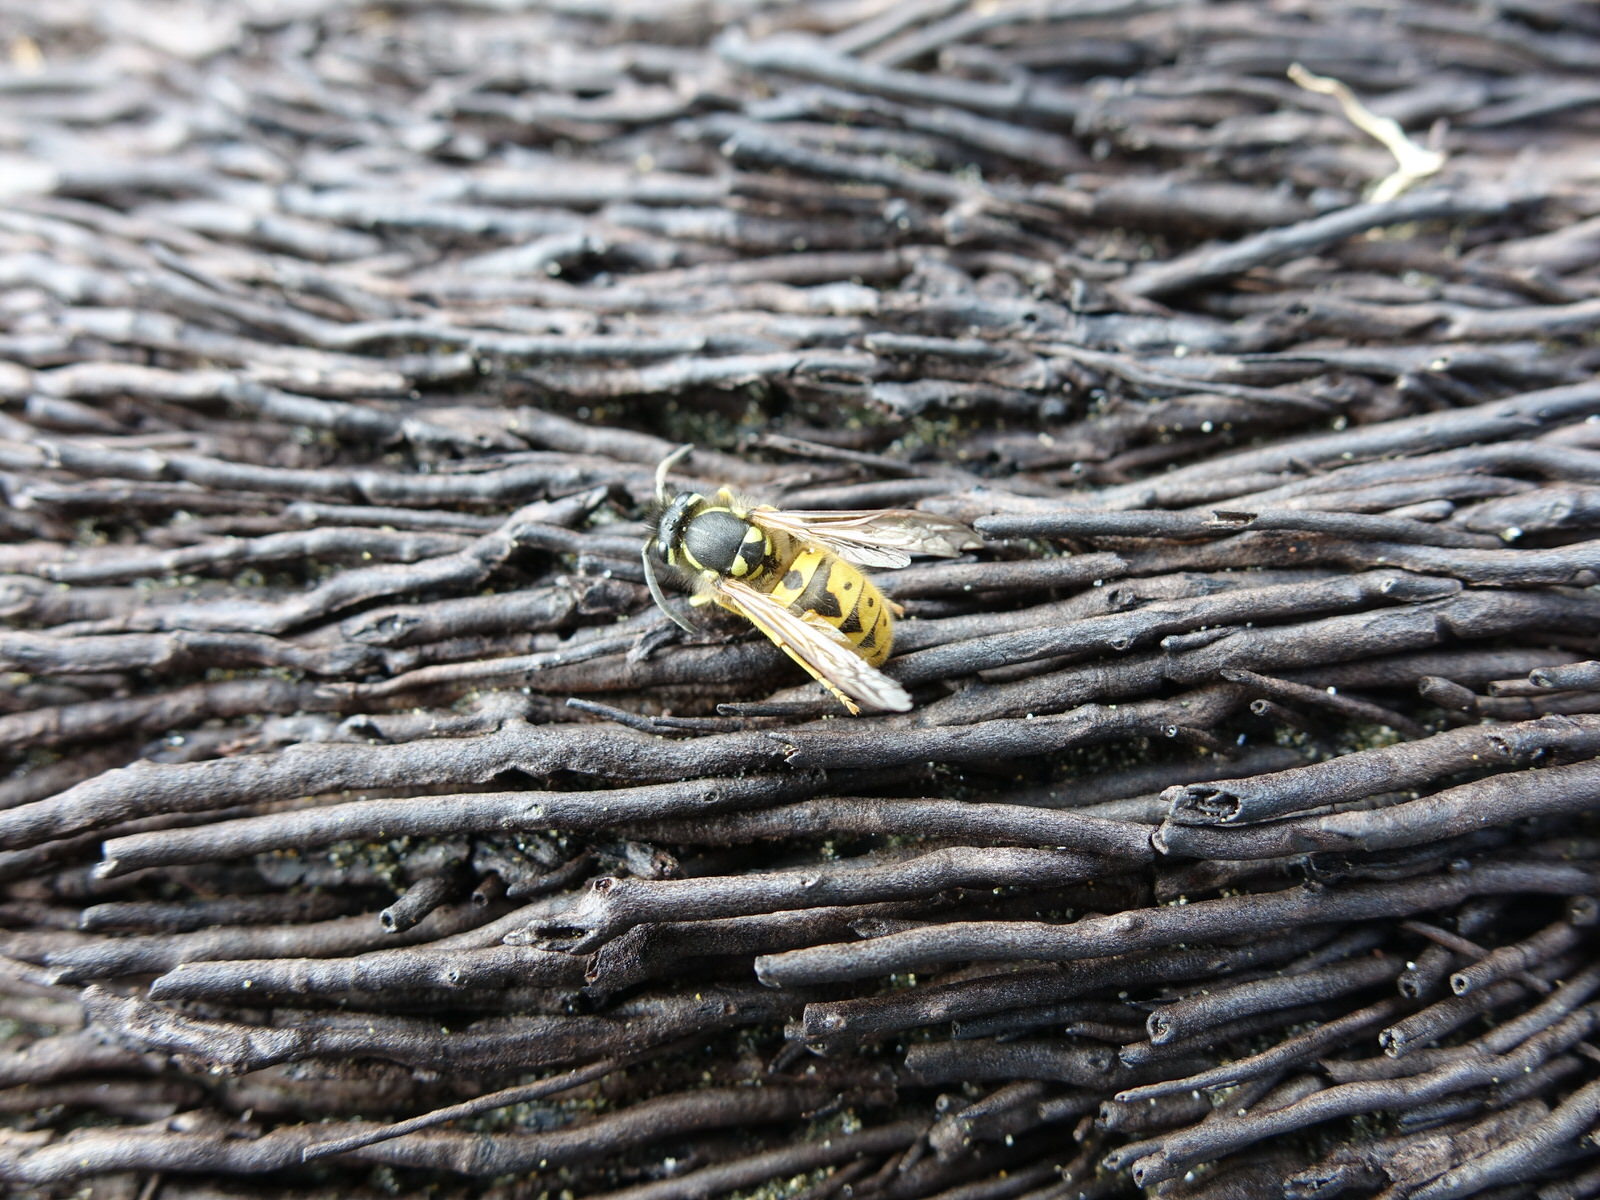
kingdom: Animalia
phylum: Arthropoda
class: Insecta
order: Hymenoptera
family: Vespidae
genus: Vespula
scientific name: Vespula germanica
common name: German wasp
